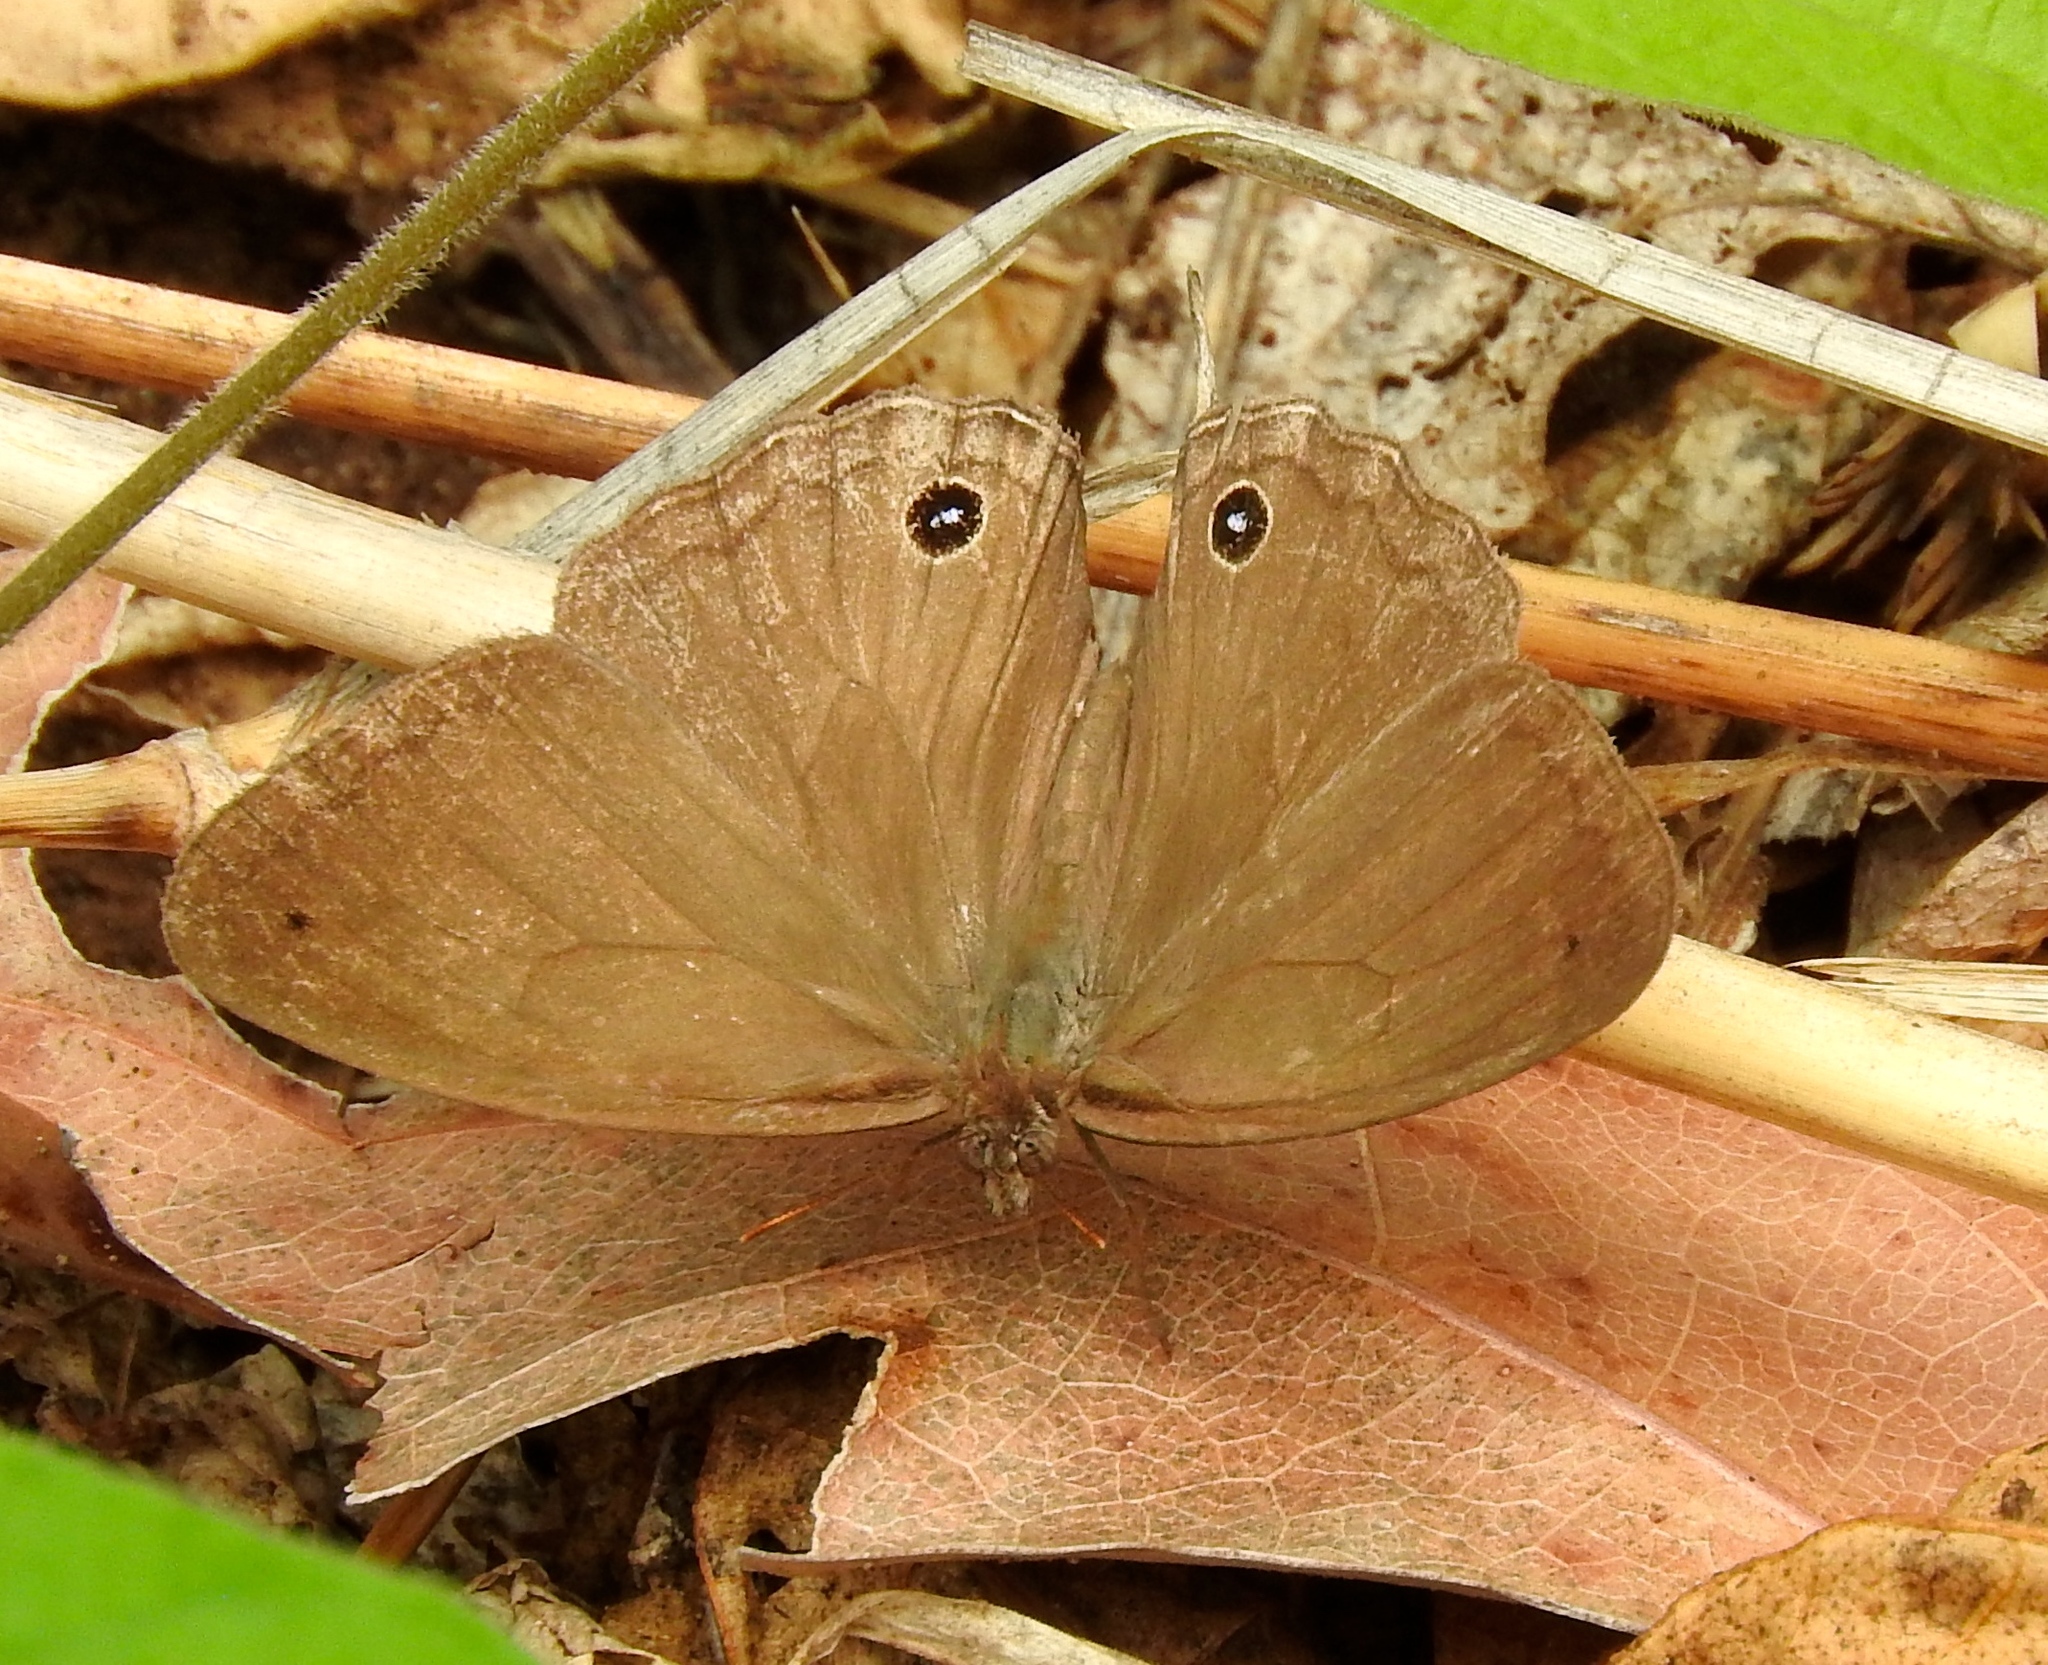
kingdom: Animalia
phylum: Arthropoda
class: Insecta
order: Lepidoptera
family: Nymphalidae
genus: Vareuptychia
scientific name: Vareuptychia similis
